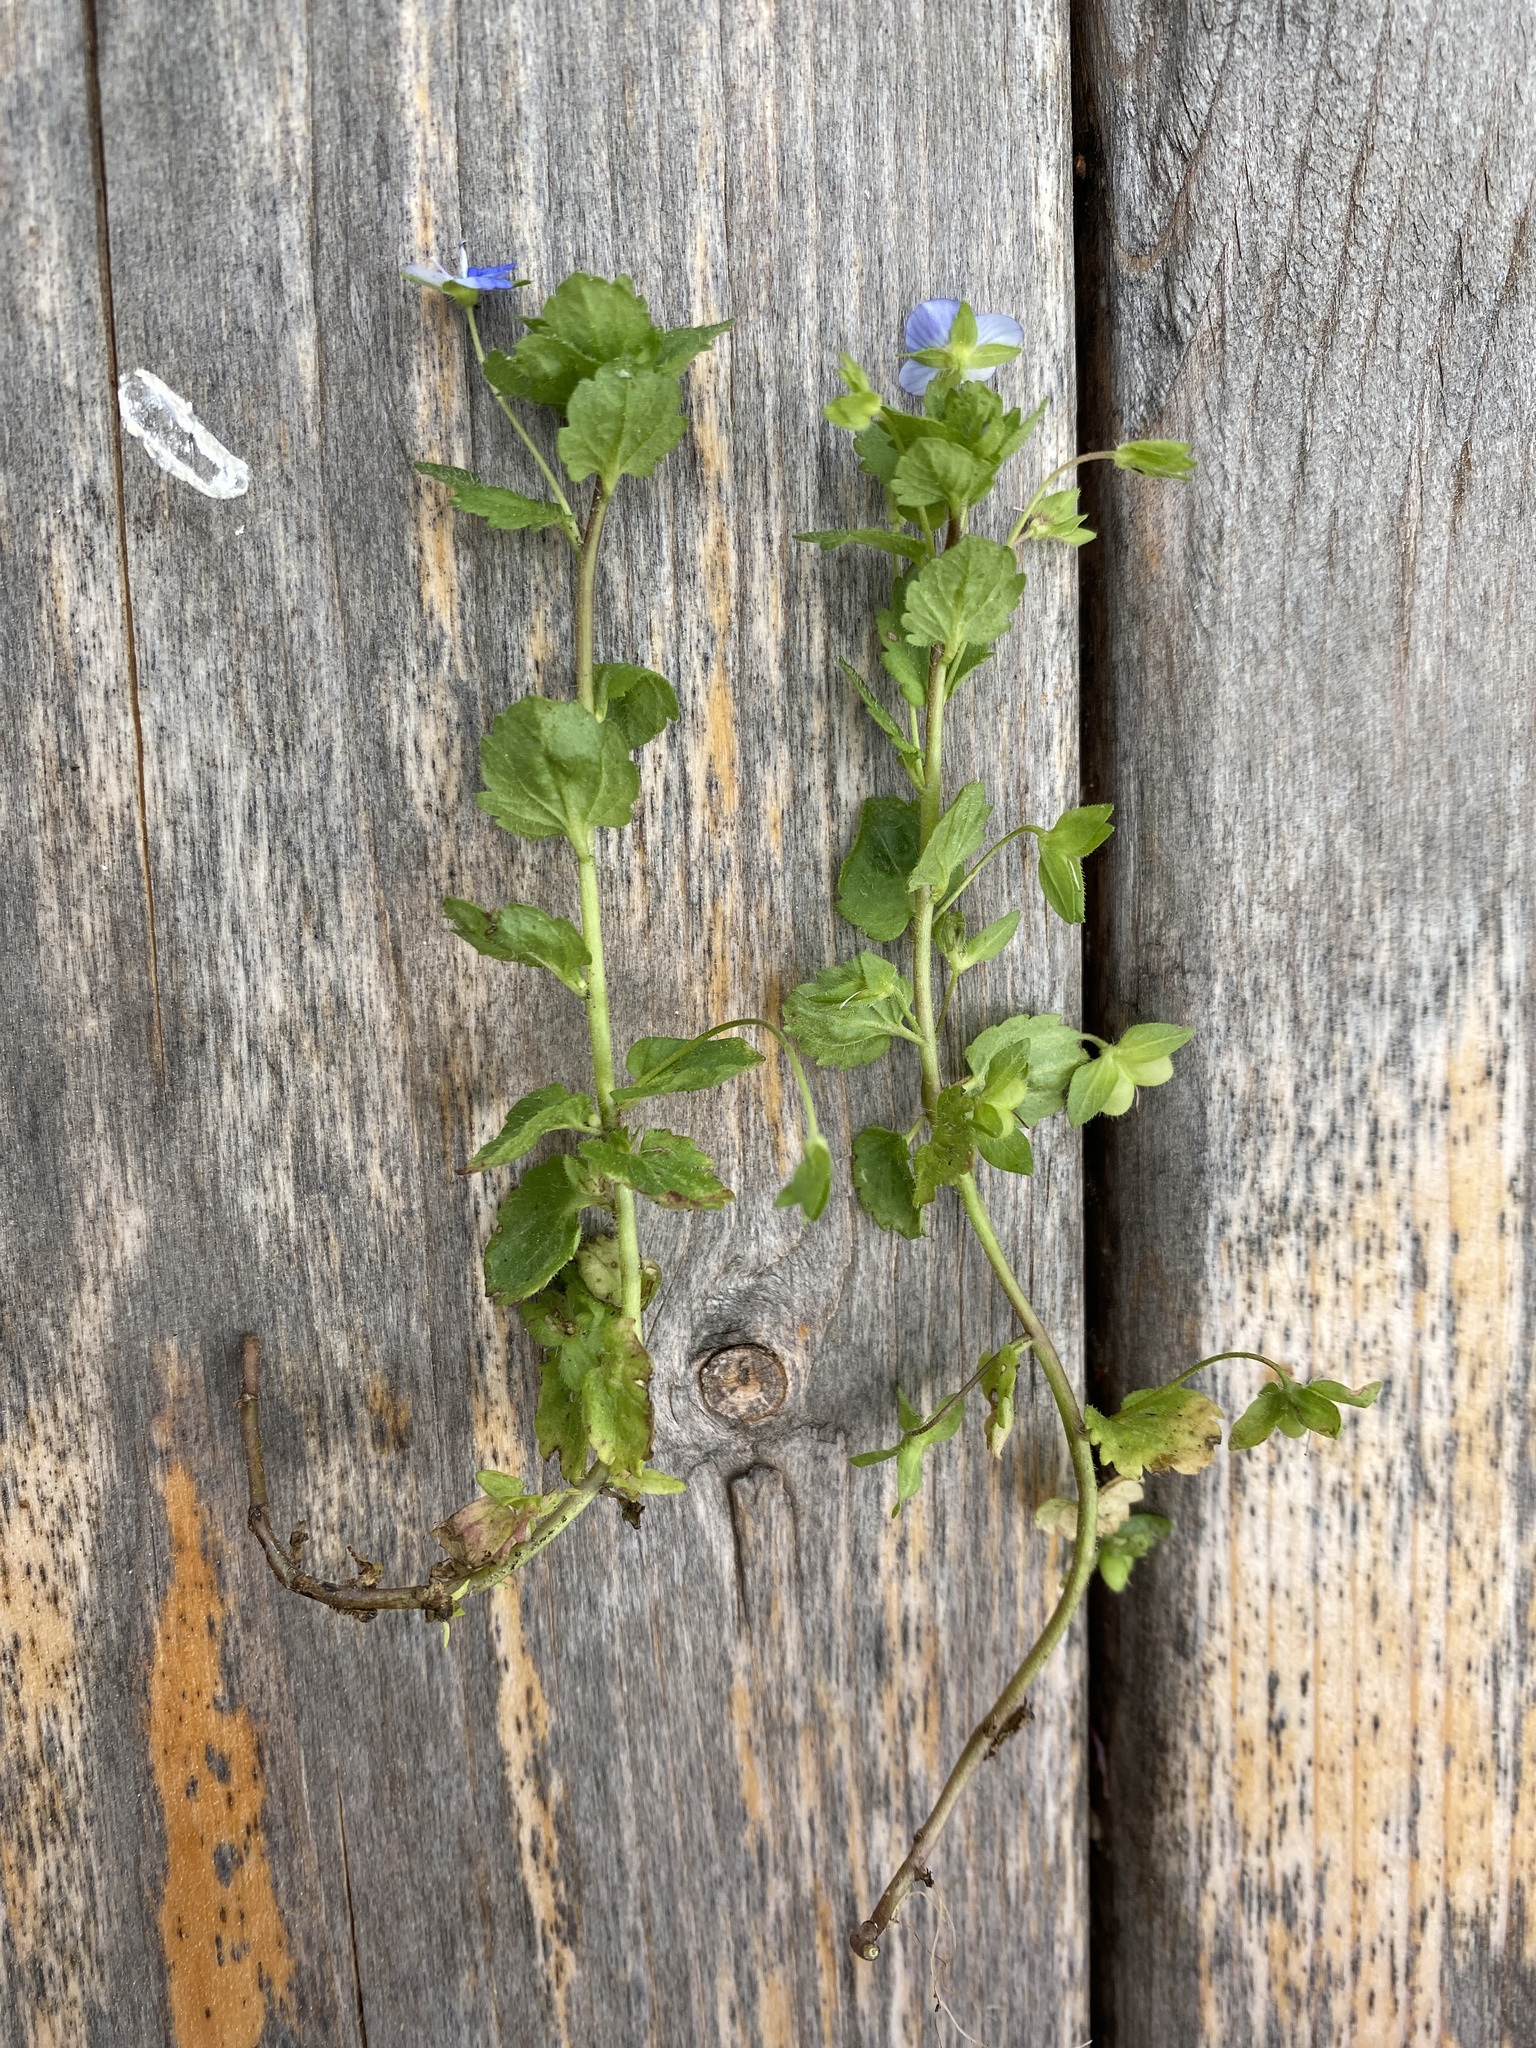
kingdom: Plantae
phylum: Tracheophyta
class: Magnoliopsida
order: Lamiales
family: Plantaginaceae
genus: Veronica
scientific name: Veronica persica
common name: Common field-speedwell
